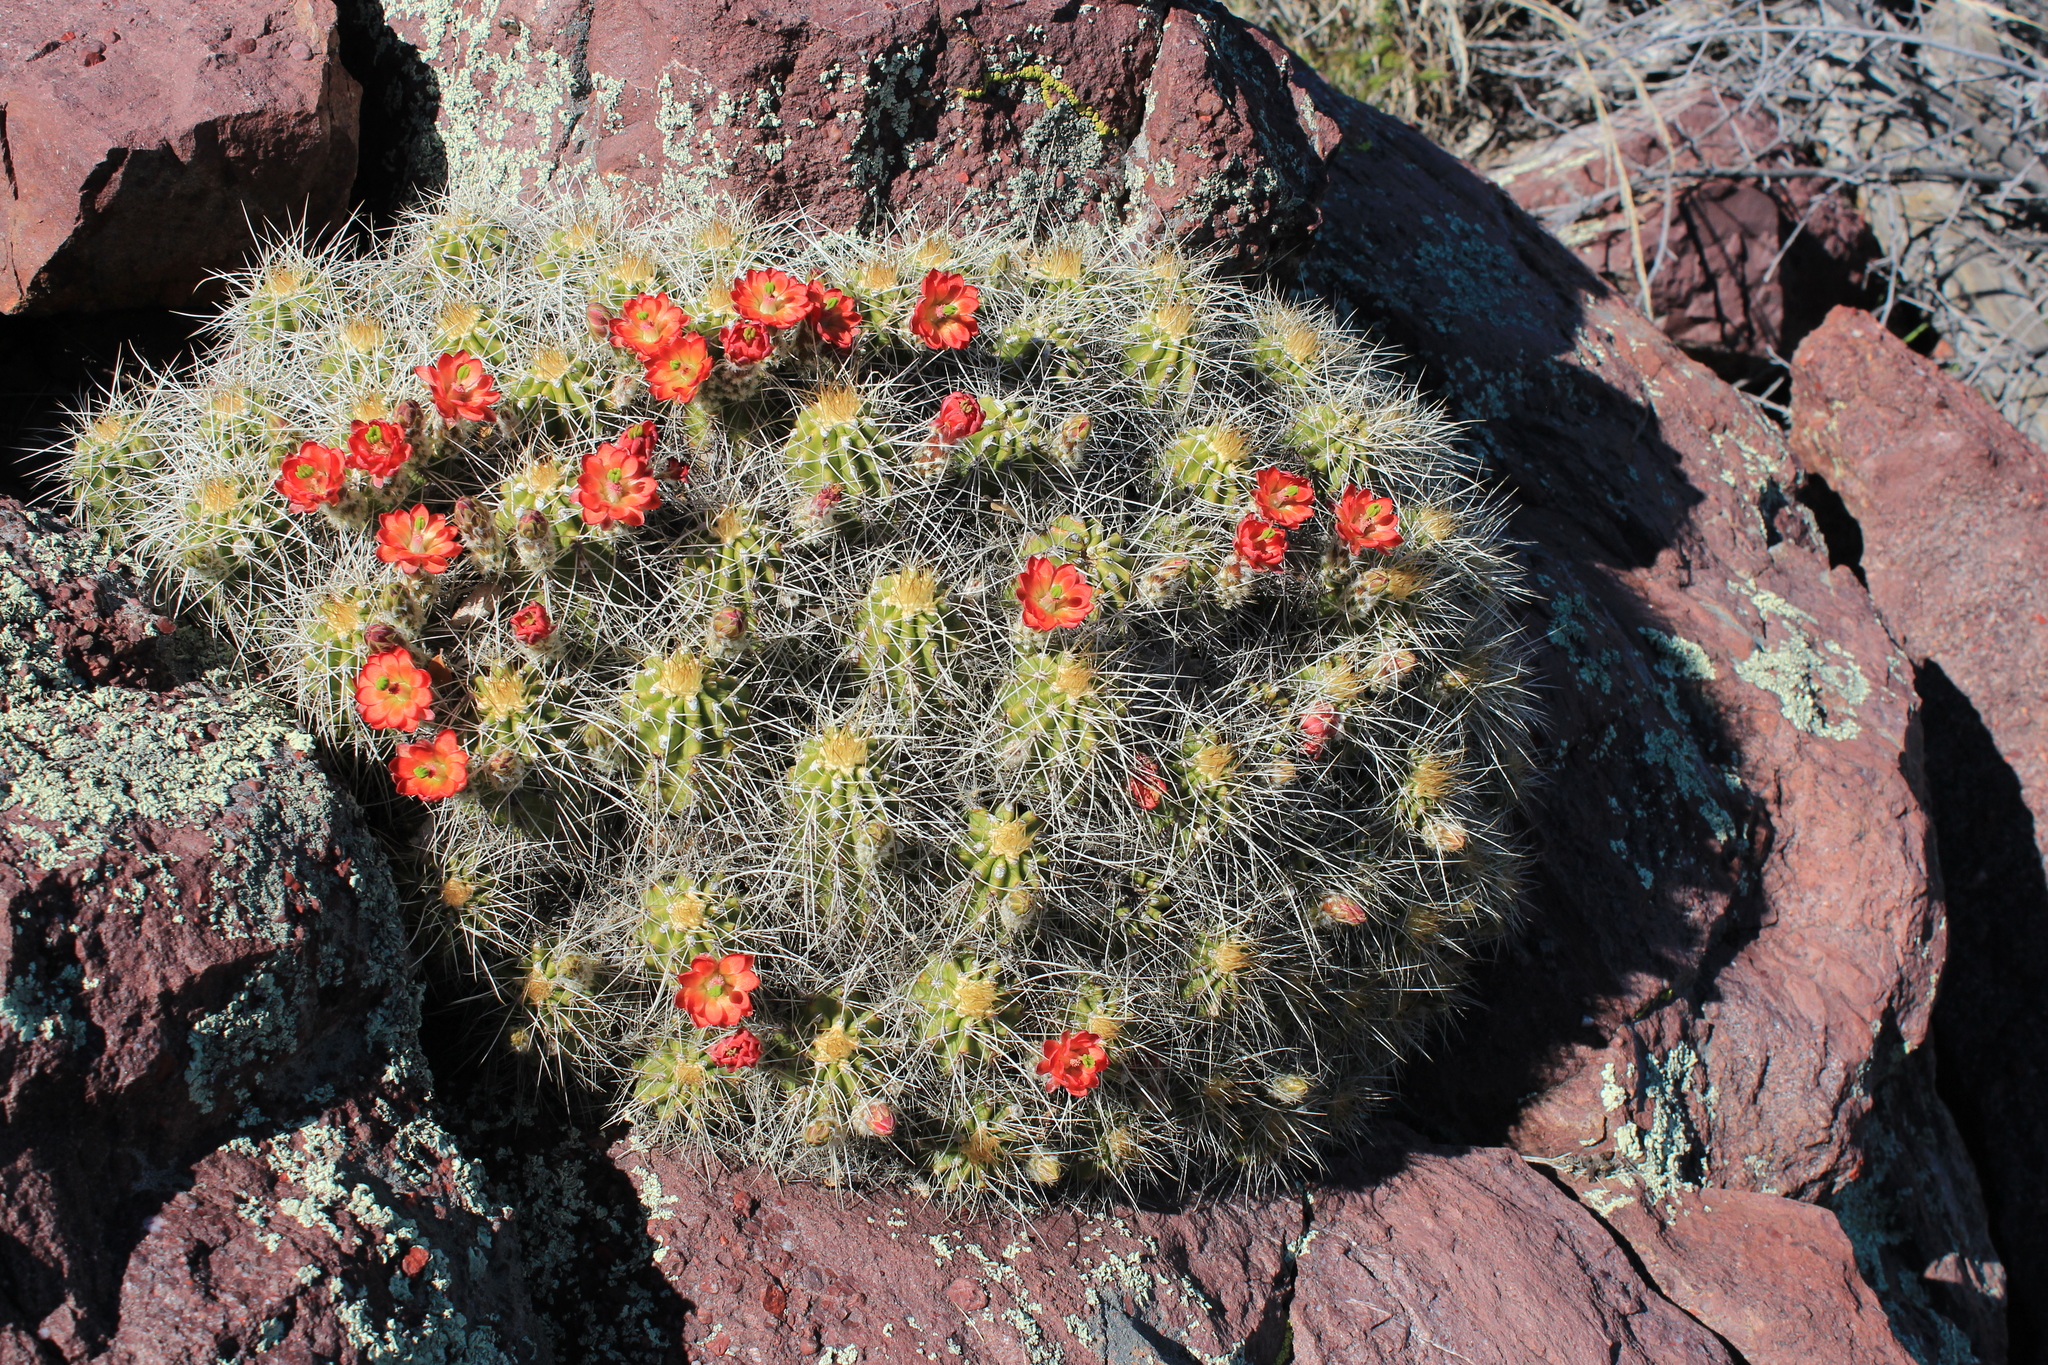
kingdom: Plantae
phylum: Tracheophyta
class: Magnoliopsida
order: Caryophyllales
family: Cactaceae
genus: Echinocereus
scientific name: Echinocereus yavapaiensis
